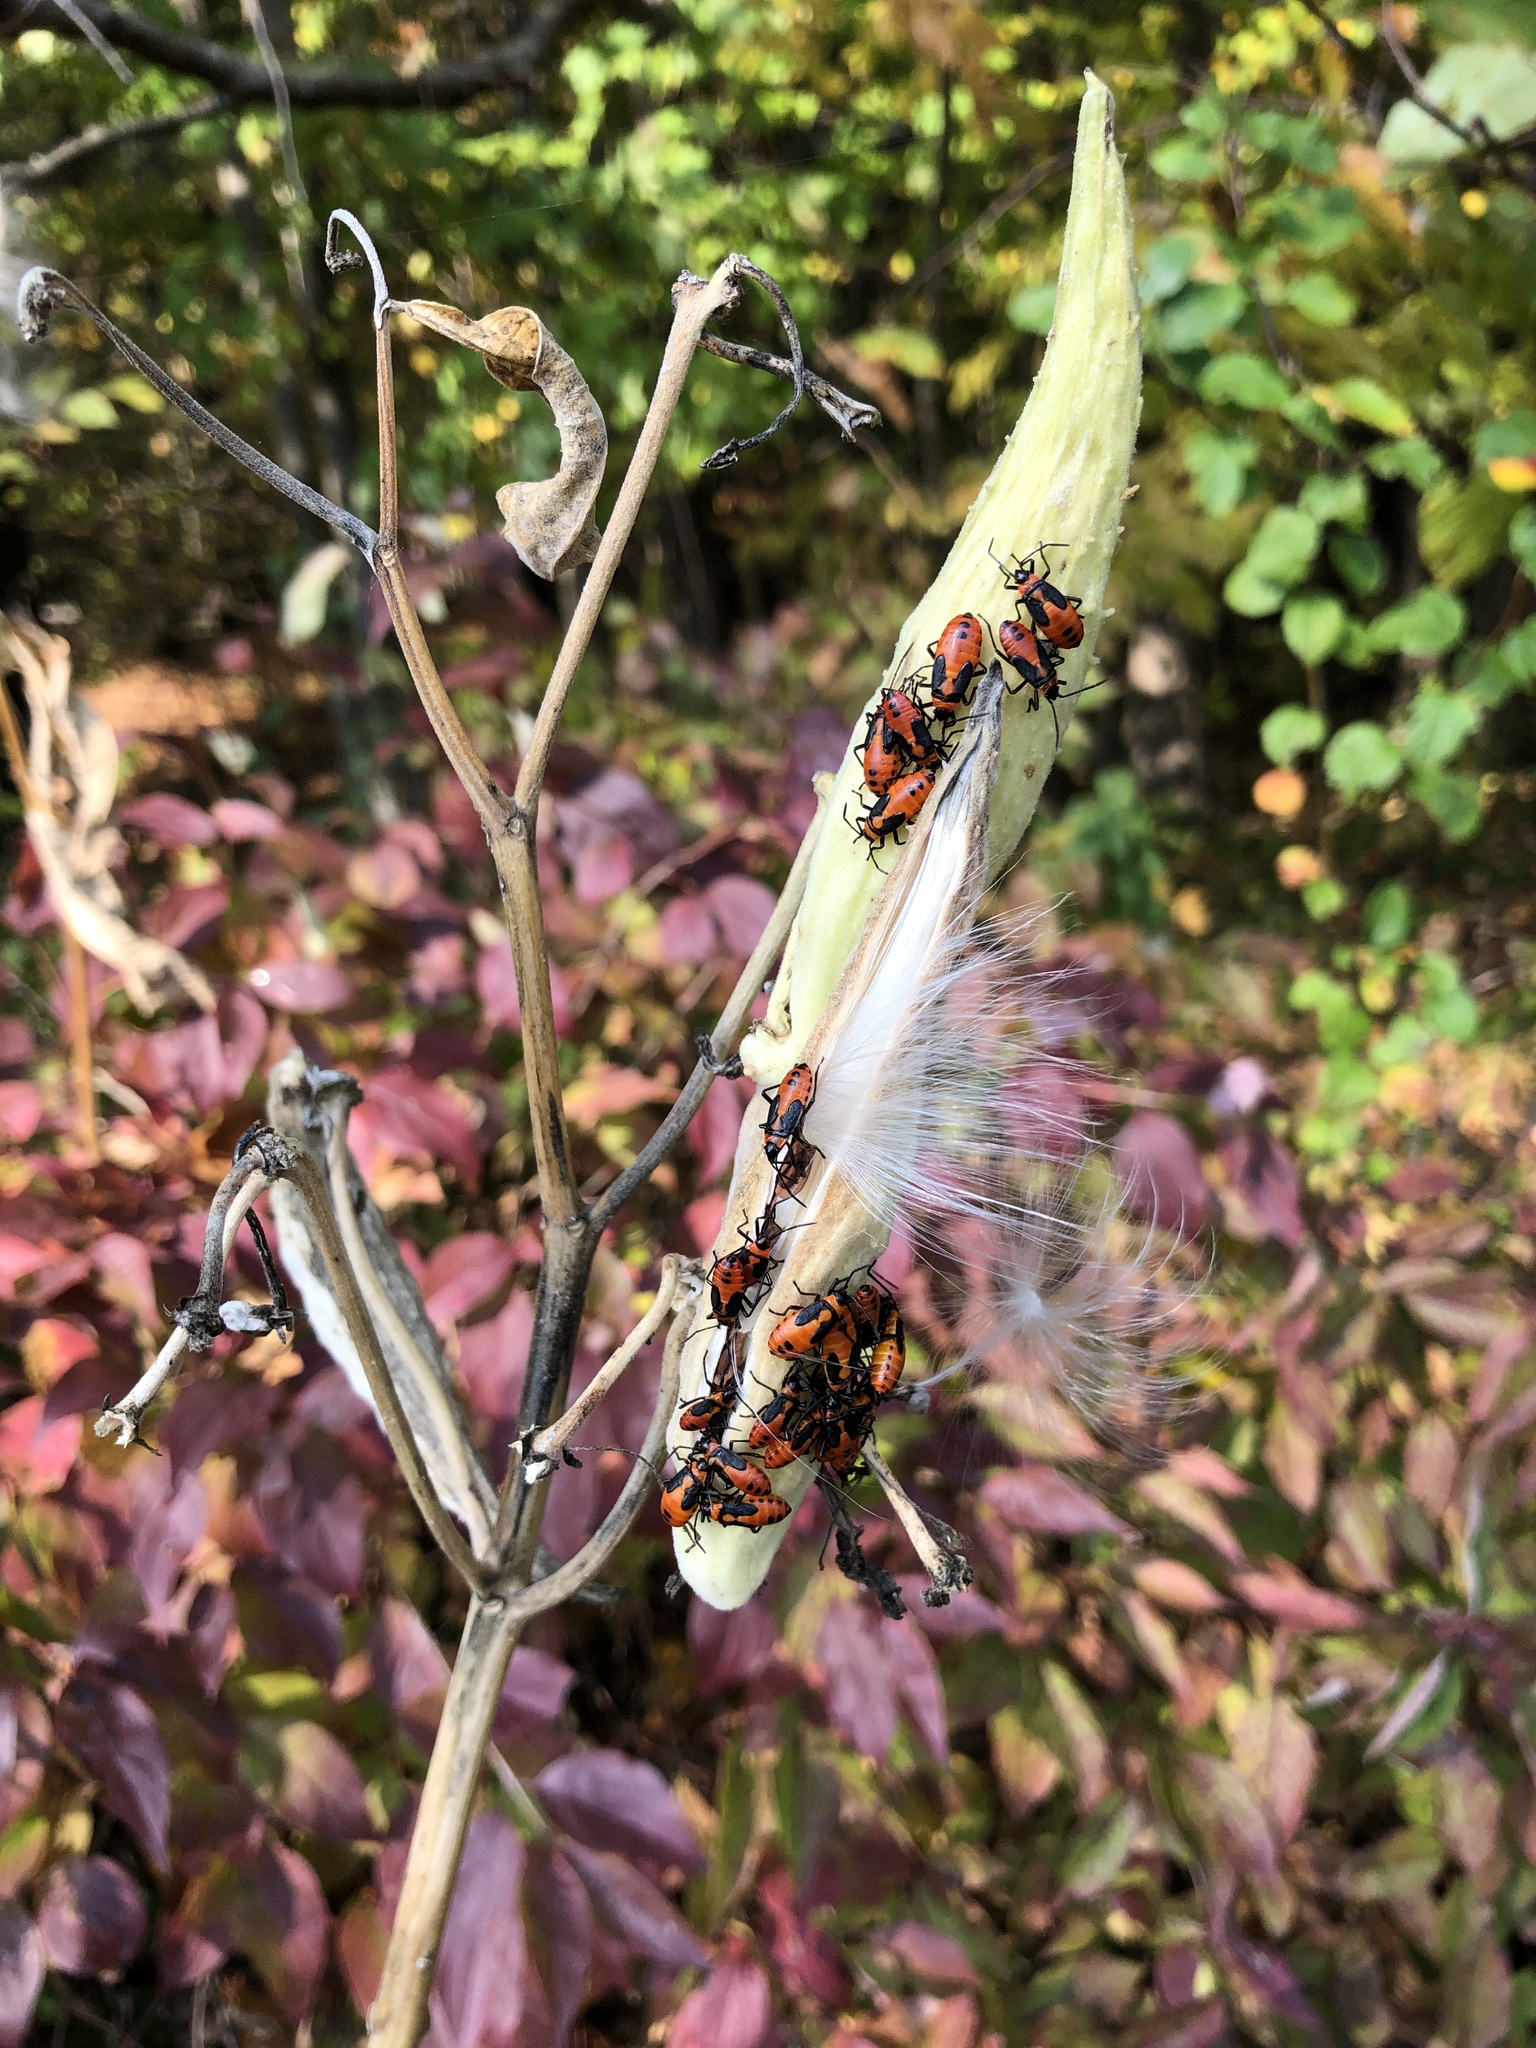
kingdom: Animalia
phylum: Arthropoda
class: Insecta
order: Hemiptera
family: Lygaeidae
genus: Oncopeltus
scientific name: Oncopeltus fasciatus
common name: Large milkweed bug
